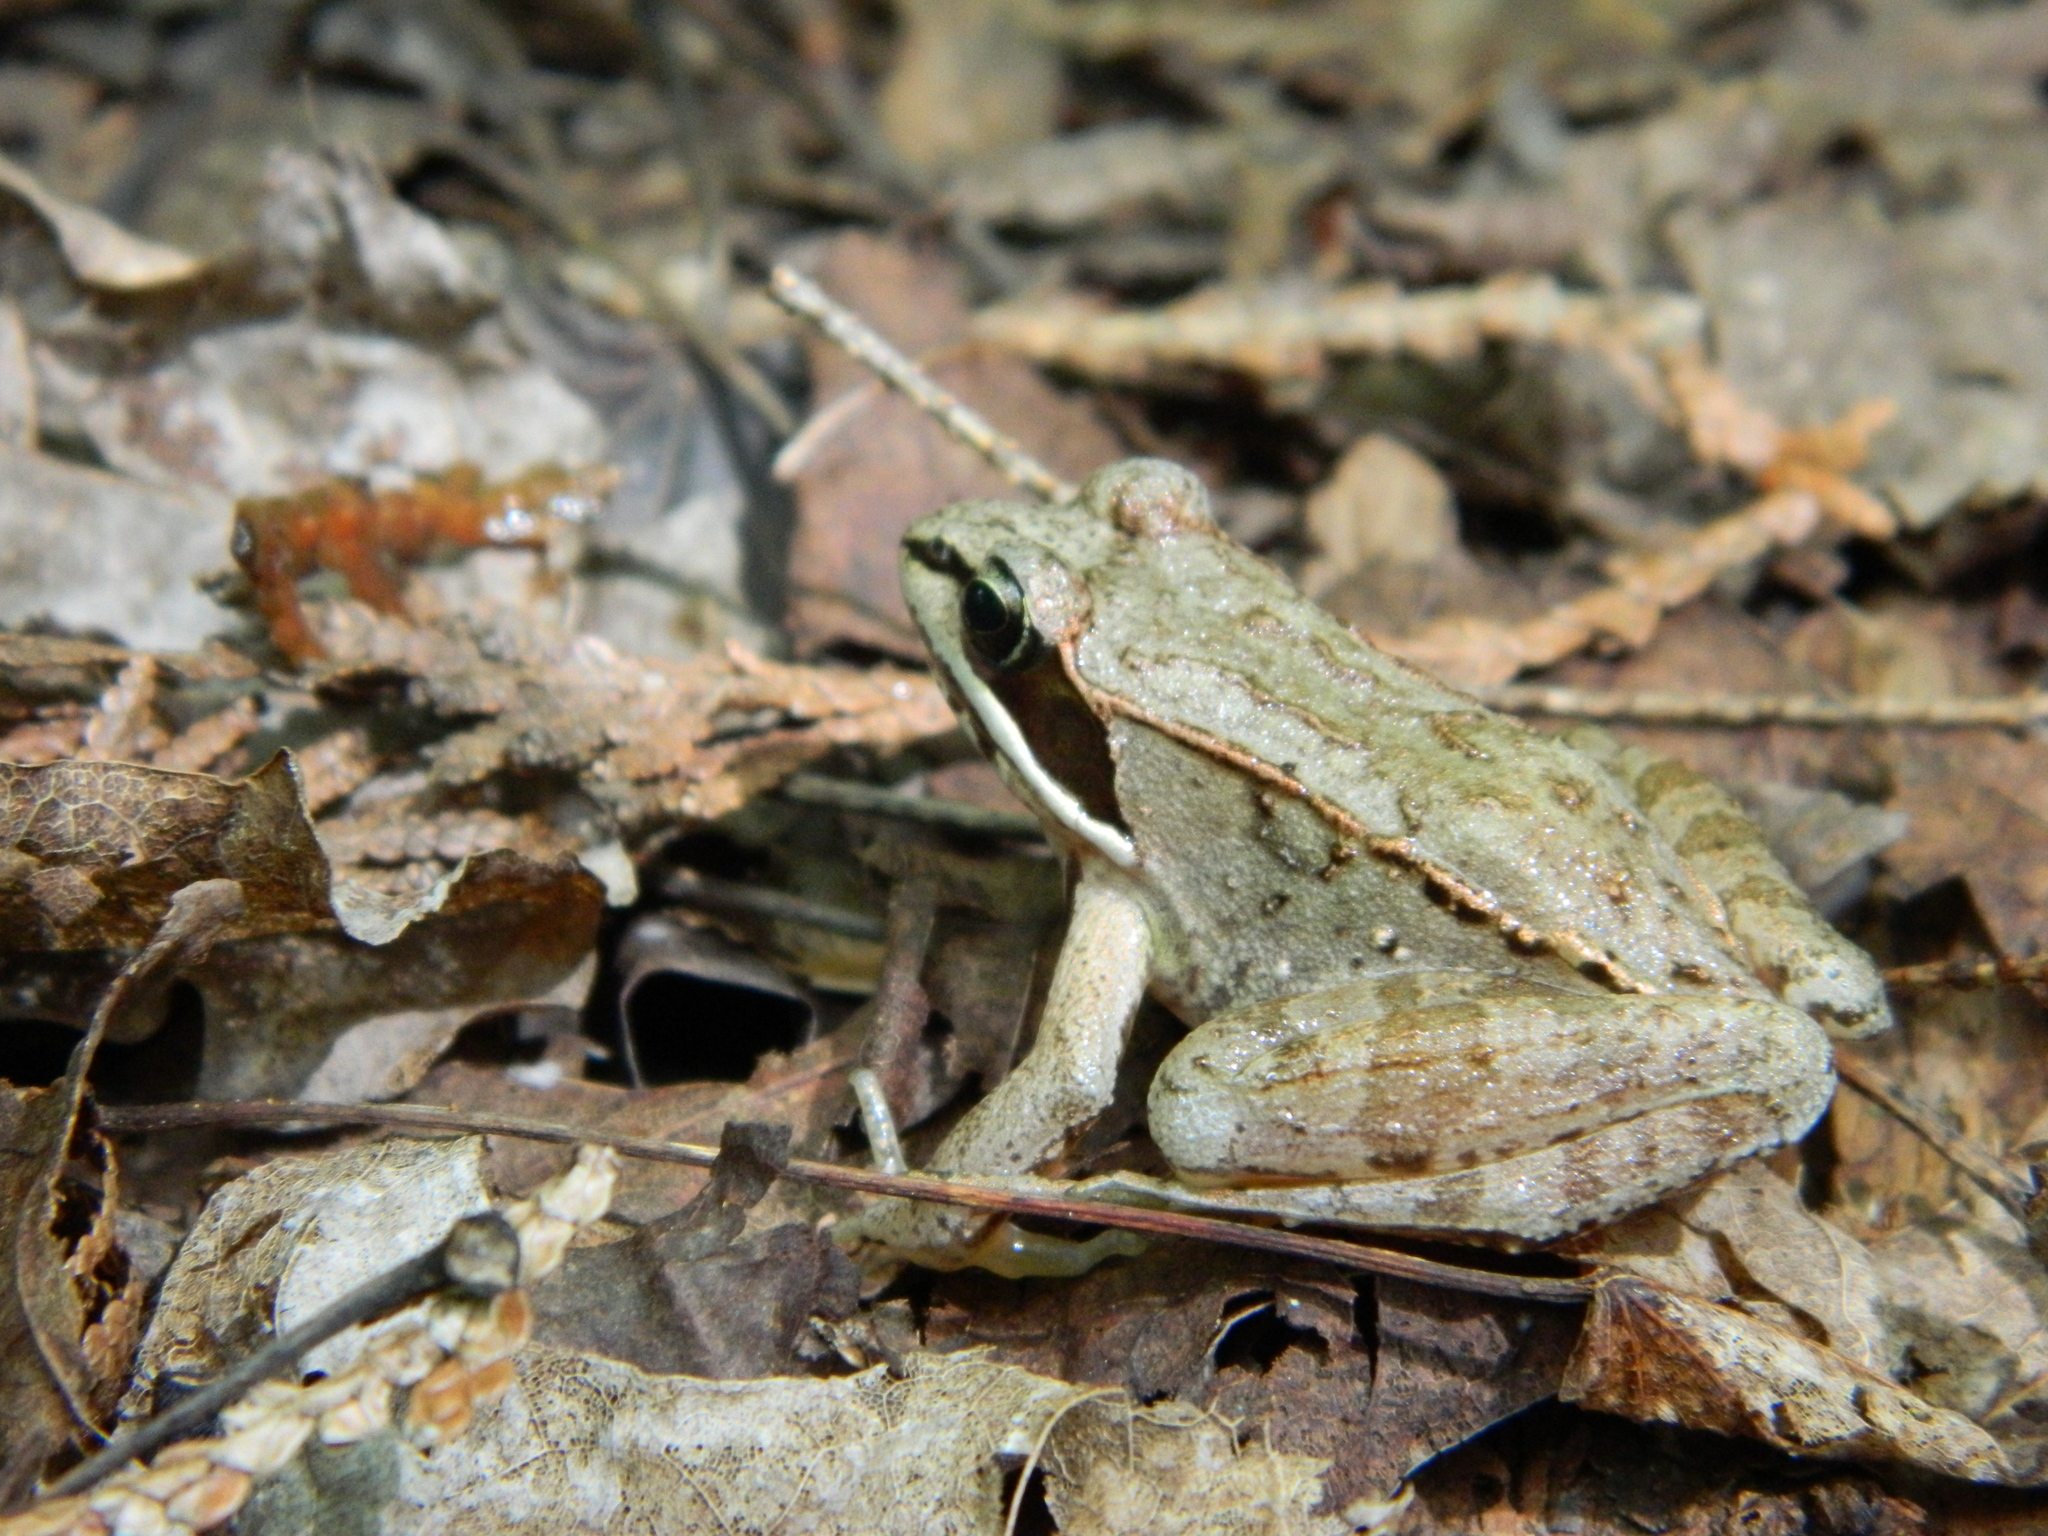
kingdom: Animalia
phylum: Chordata
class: Amphibia
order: Anura
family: Ranidae
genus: Lithobates
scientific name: Lithobates sylvaticus
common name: Wood frog
